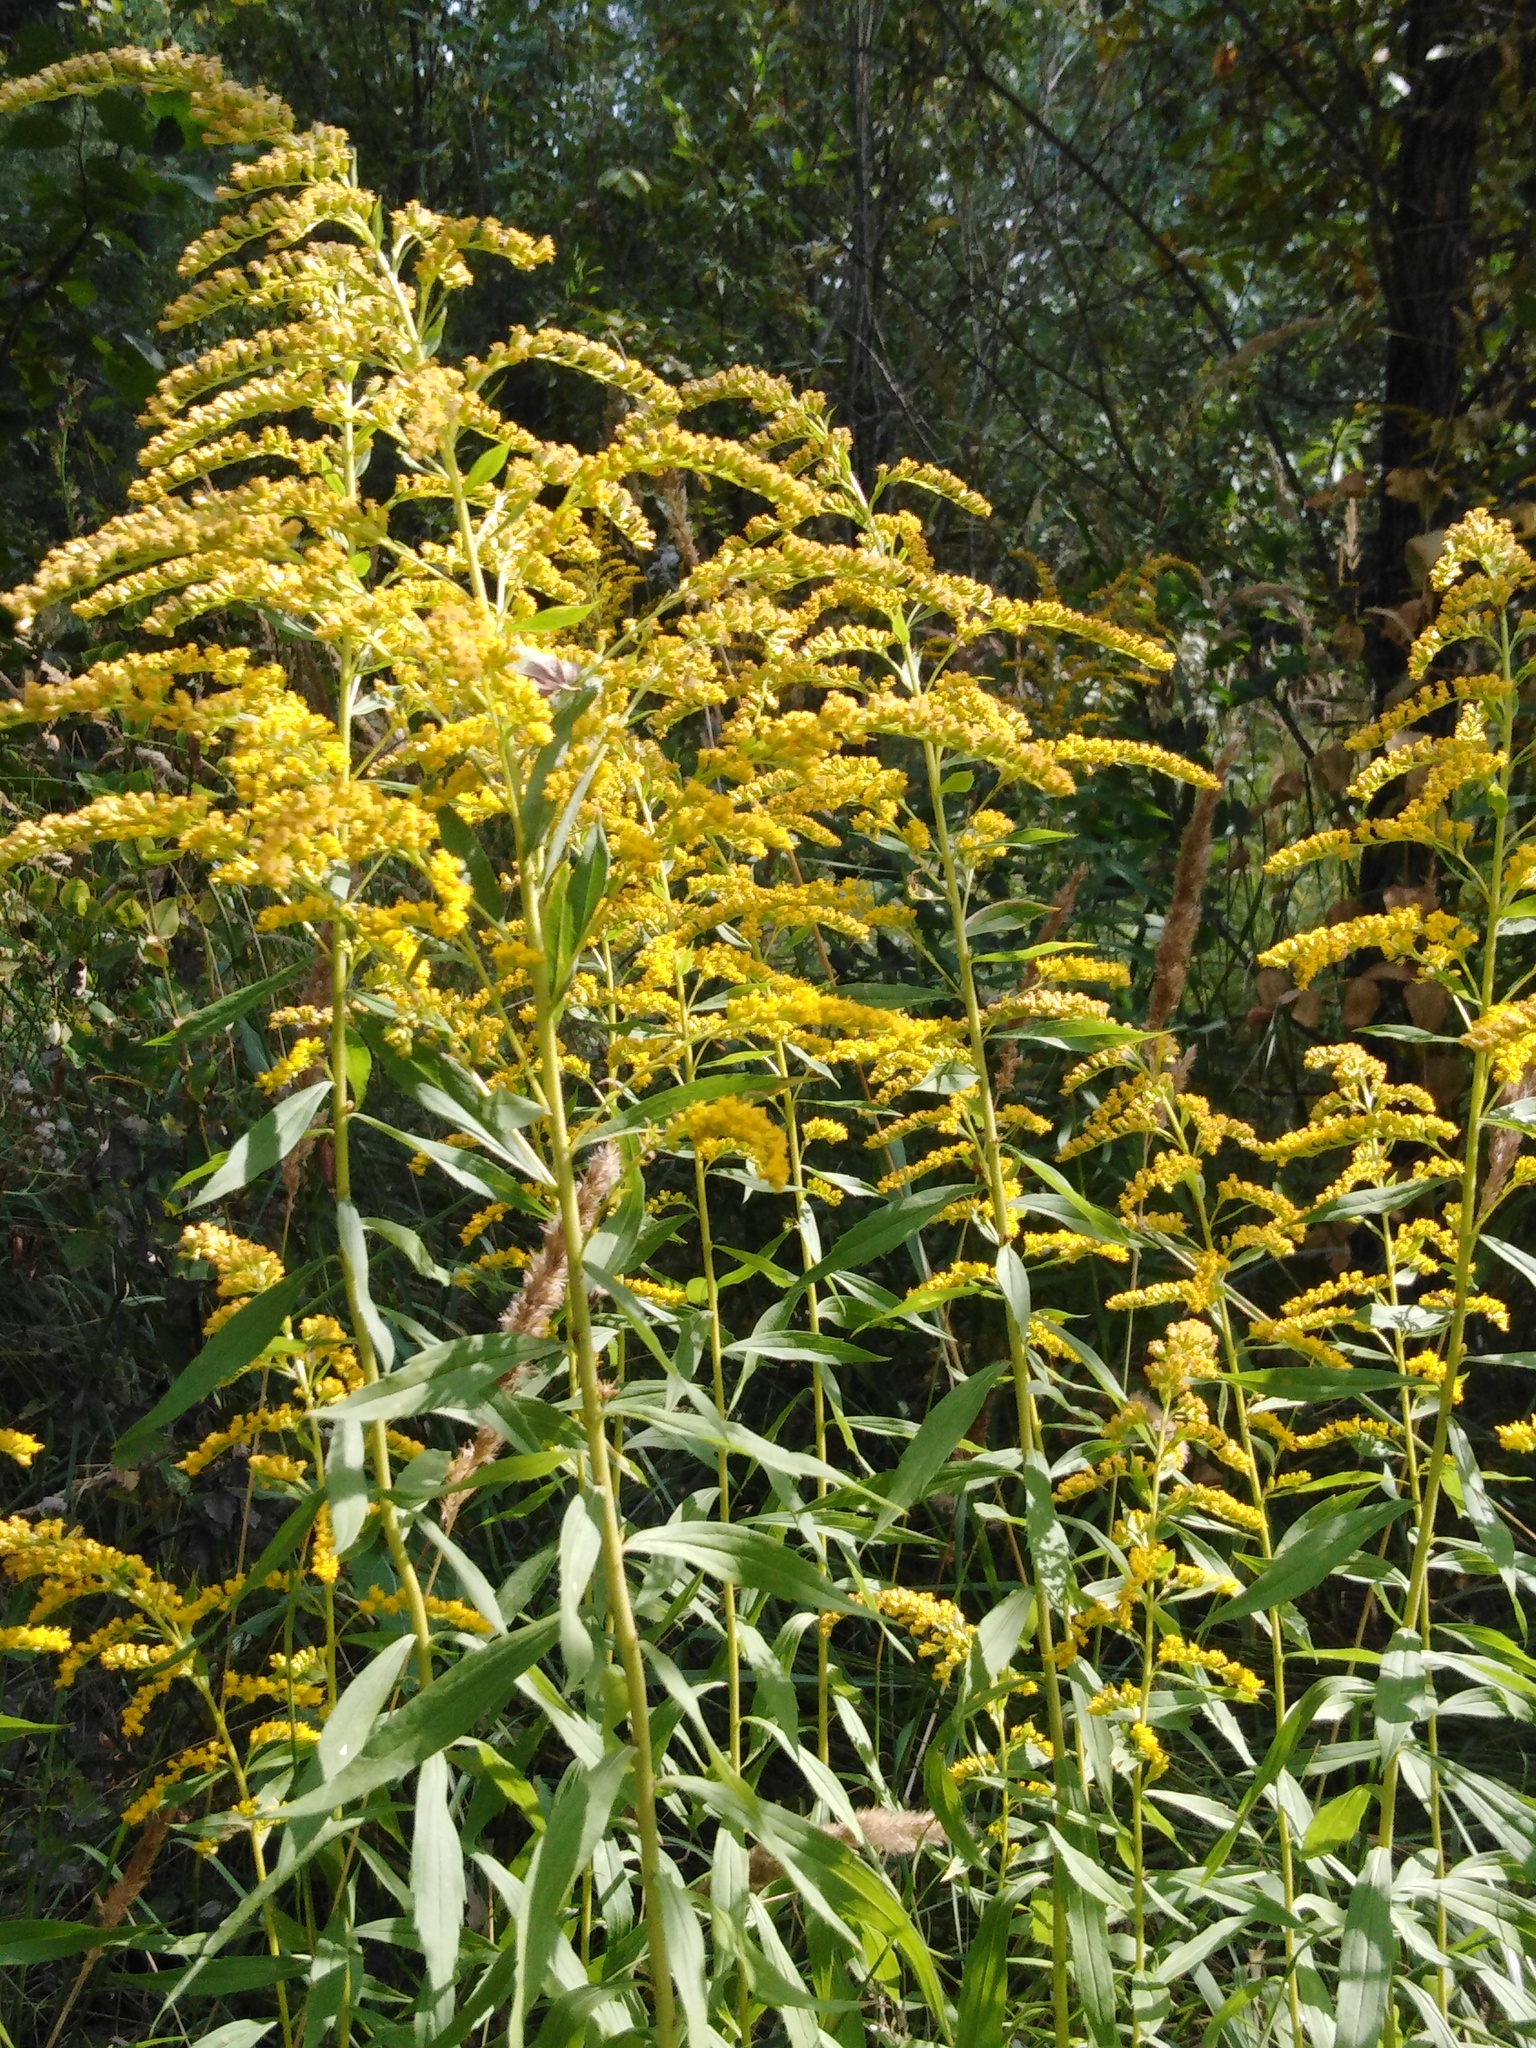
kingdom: Plantae
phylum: Tracheophyta
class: Magnoliopsida
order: Asterales
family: Asteraceae
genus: Solidago
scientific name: Solidago canadensis
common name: Canada goldenrod
